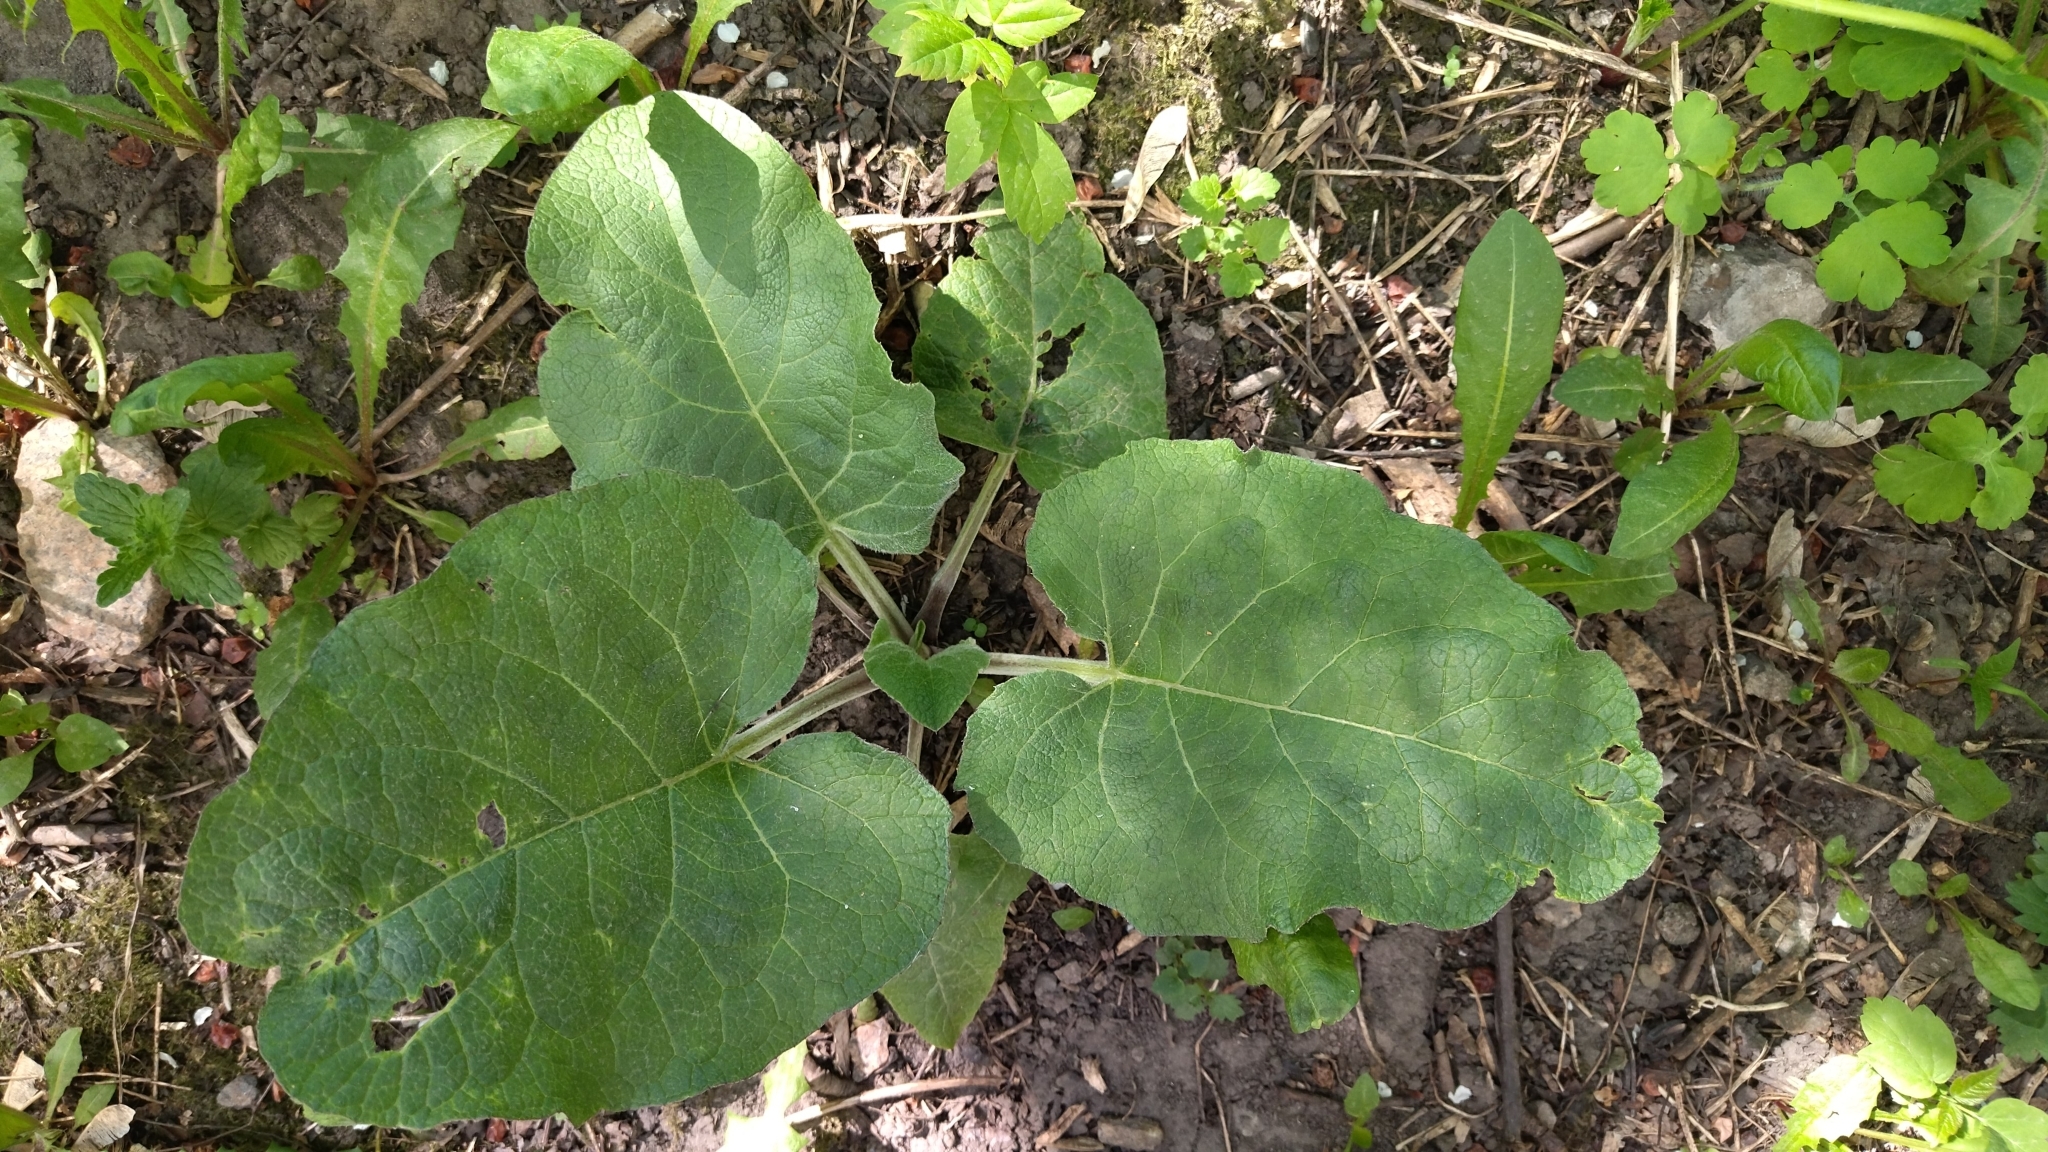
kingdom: Plantae
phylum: Tracheophyta
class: Magnoliopsida
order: Asterales
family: Asteraceae
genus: Arctium
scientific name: Arctium tomentosum
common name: Woolly burdock
